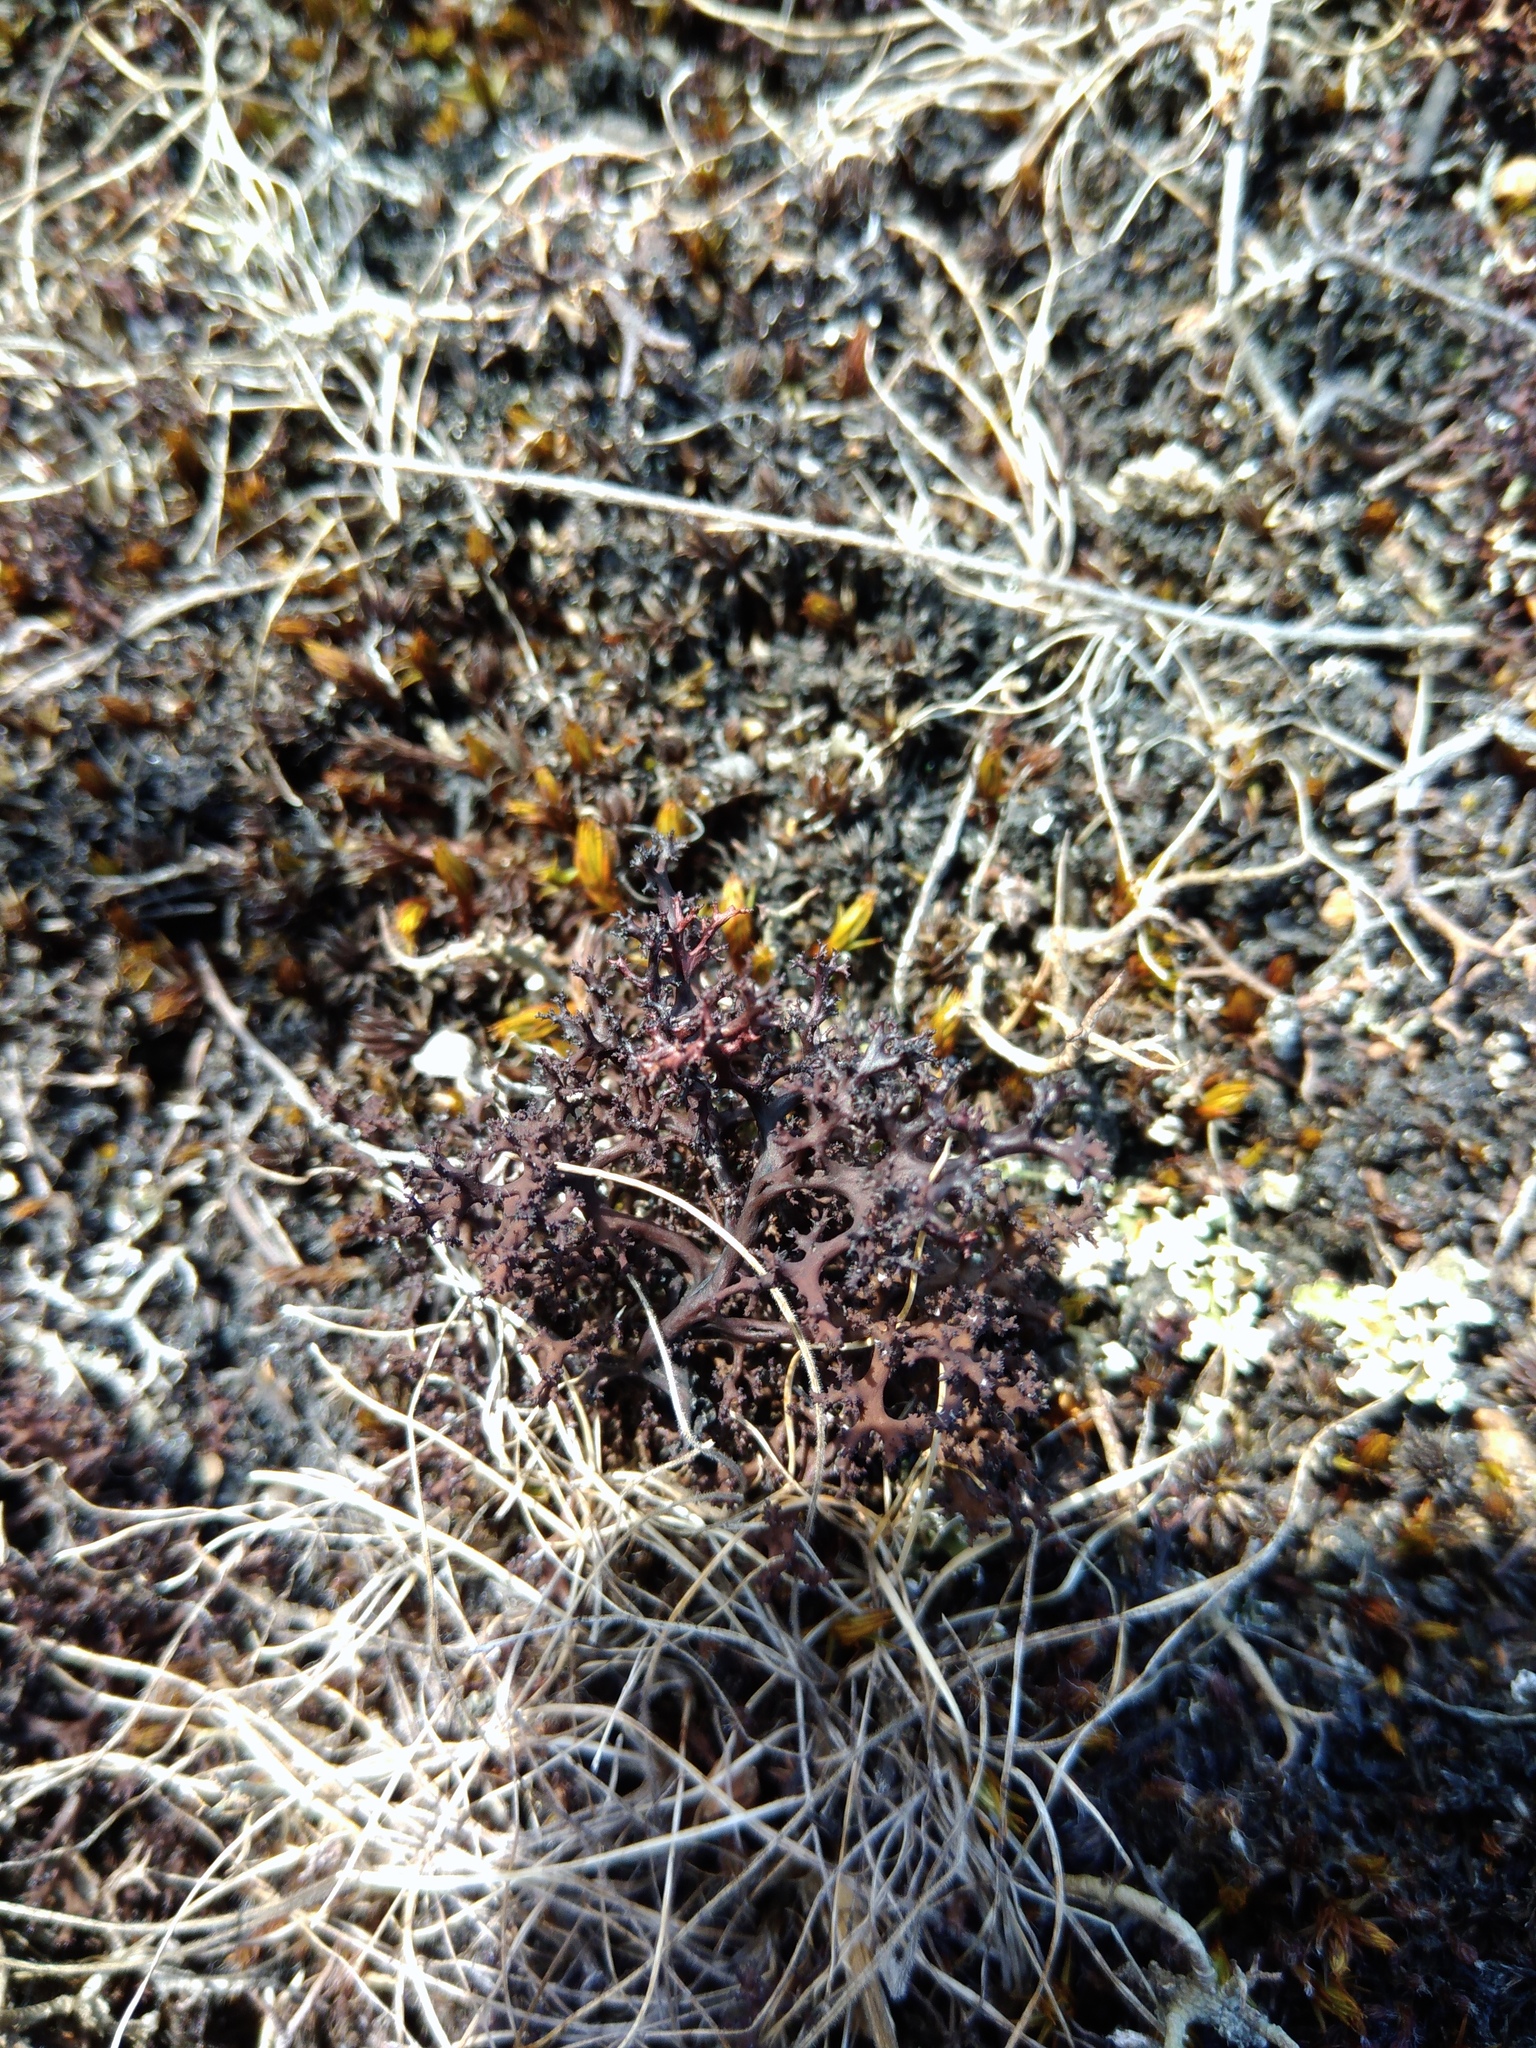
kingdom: Fungi
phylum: Ascomycota
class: Lecanoromycetes
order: Lecanorales
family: Parmeliaceae
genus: Cetraria
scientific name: Cetraria aculeata
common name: Spiny heath lichen
